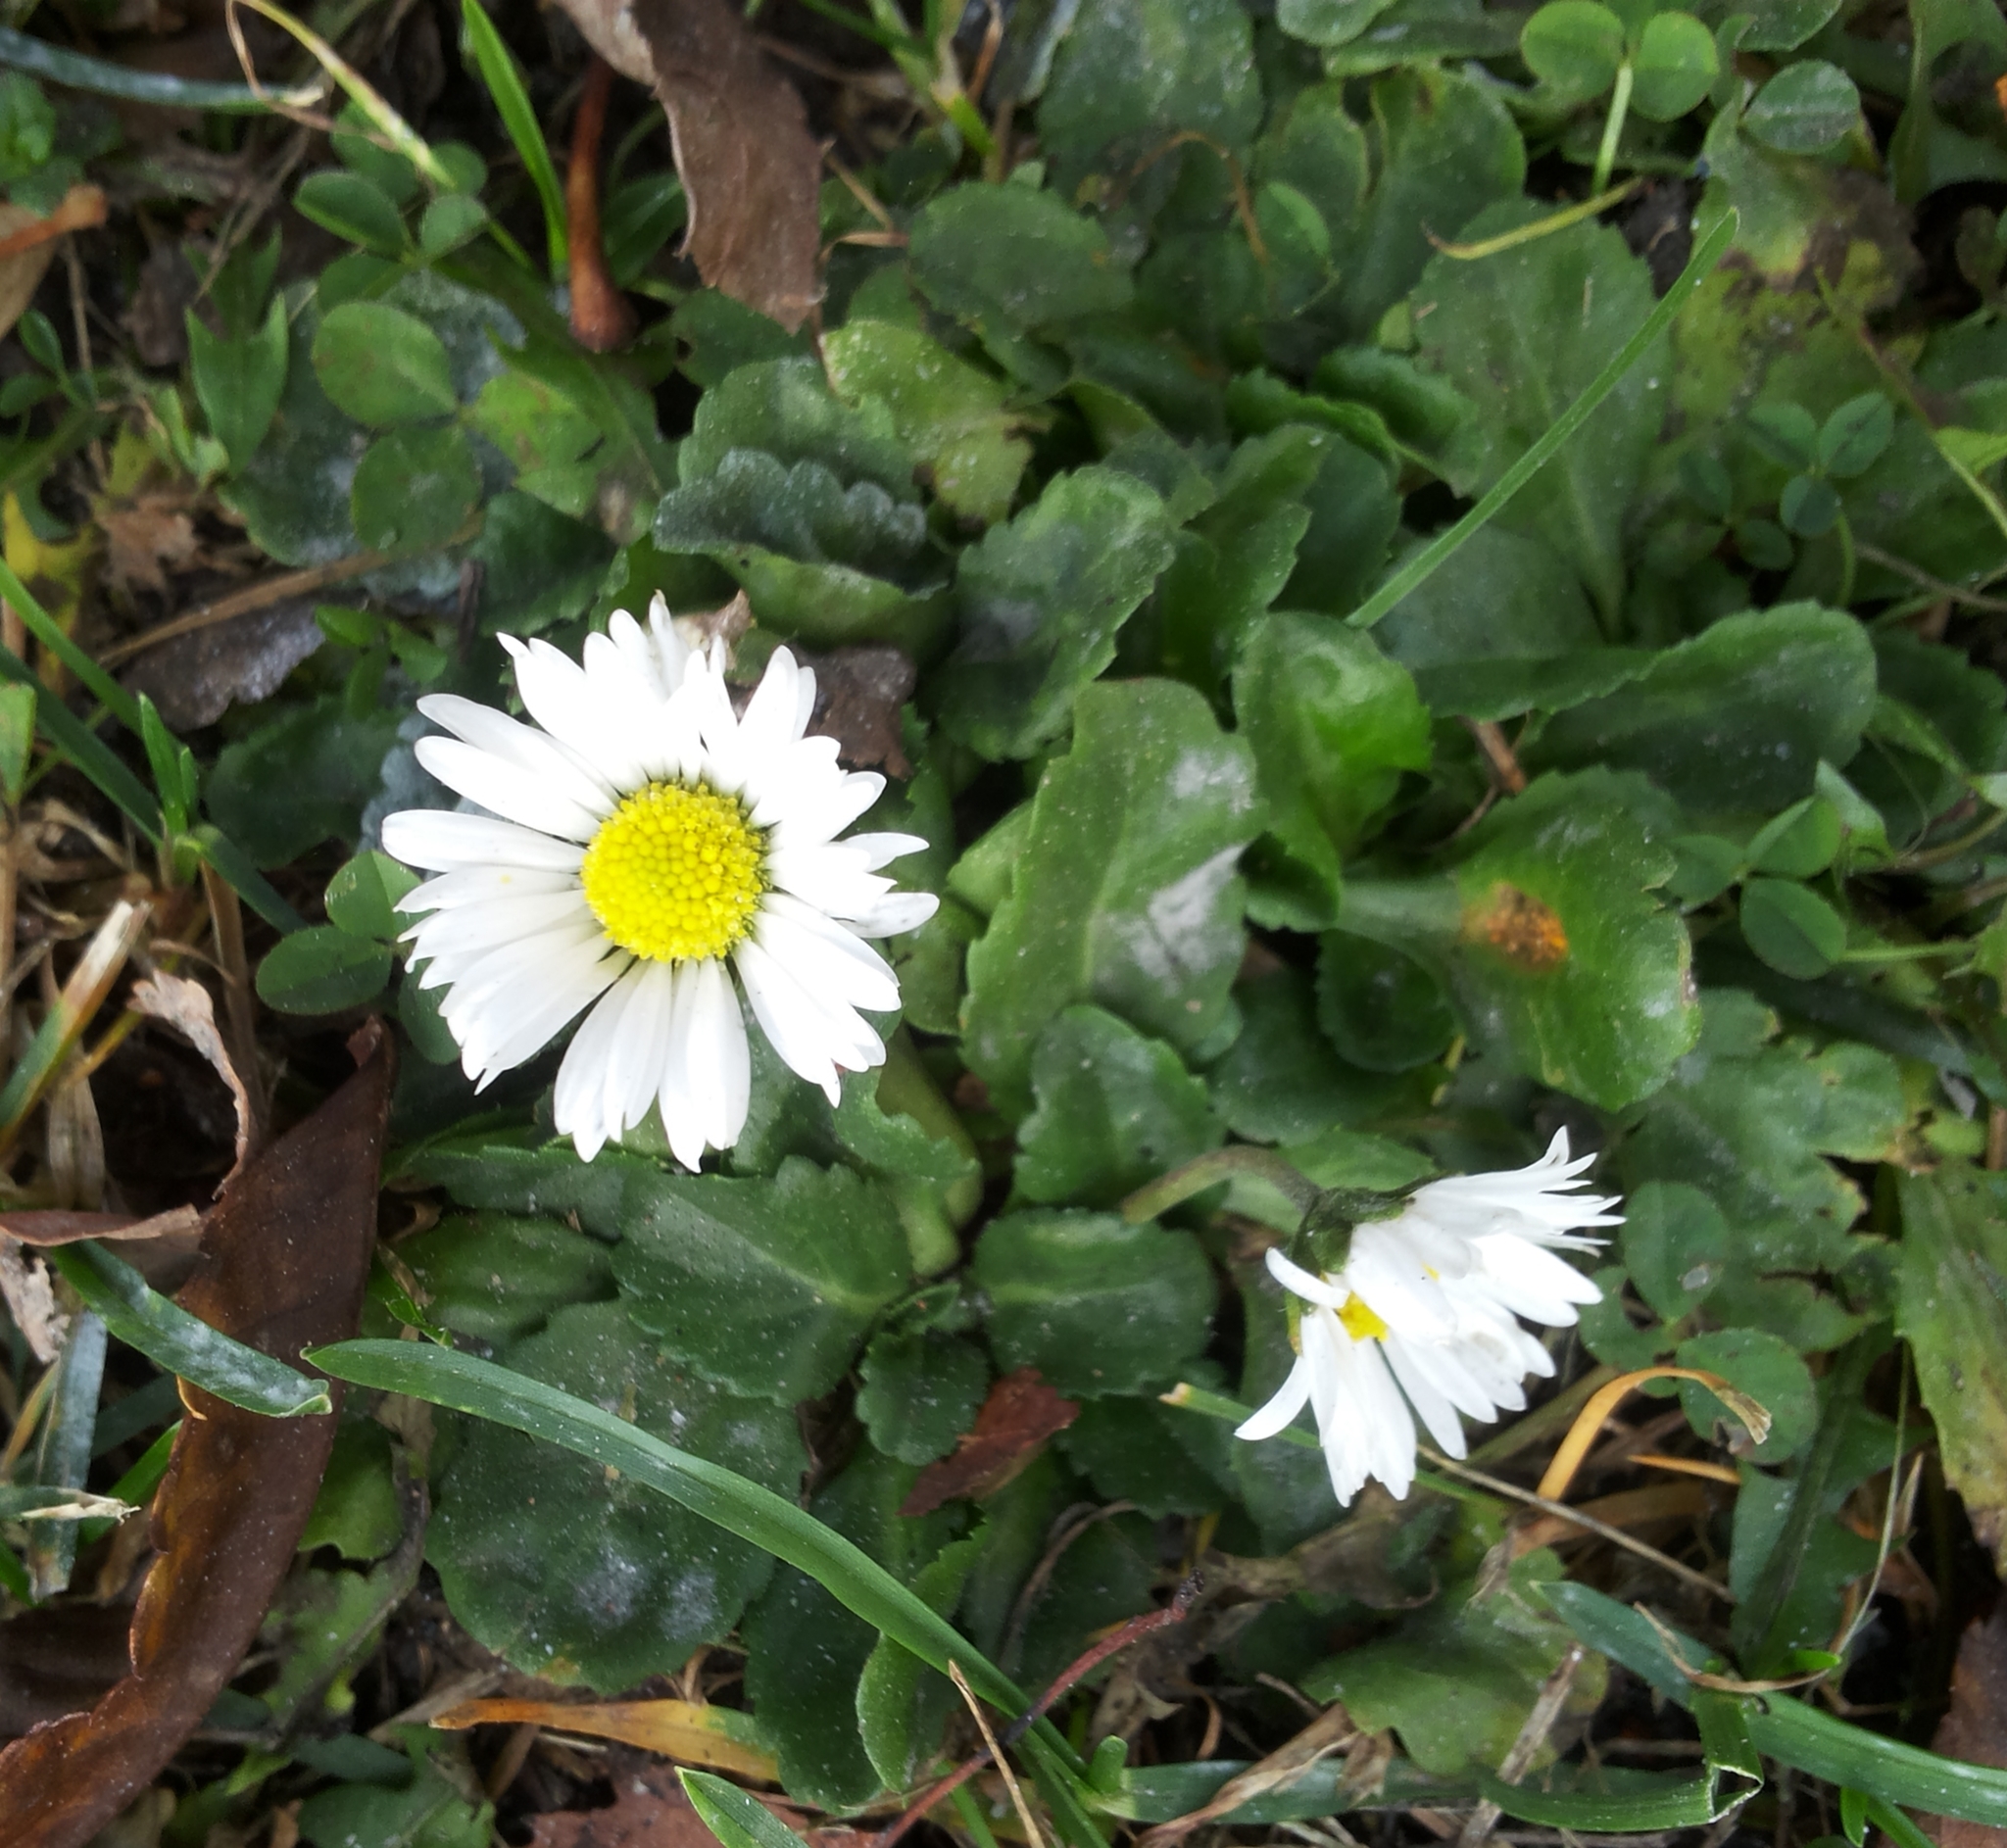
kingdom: Plantae
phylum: Tracheophyta
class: Magnoliopsida
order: Asterales
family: Asteraceae
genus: Bellis
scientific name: Bellis perennis
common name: Lawndaisy
